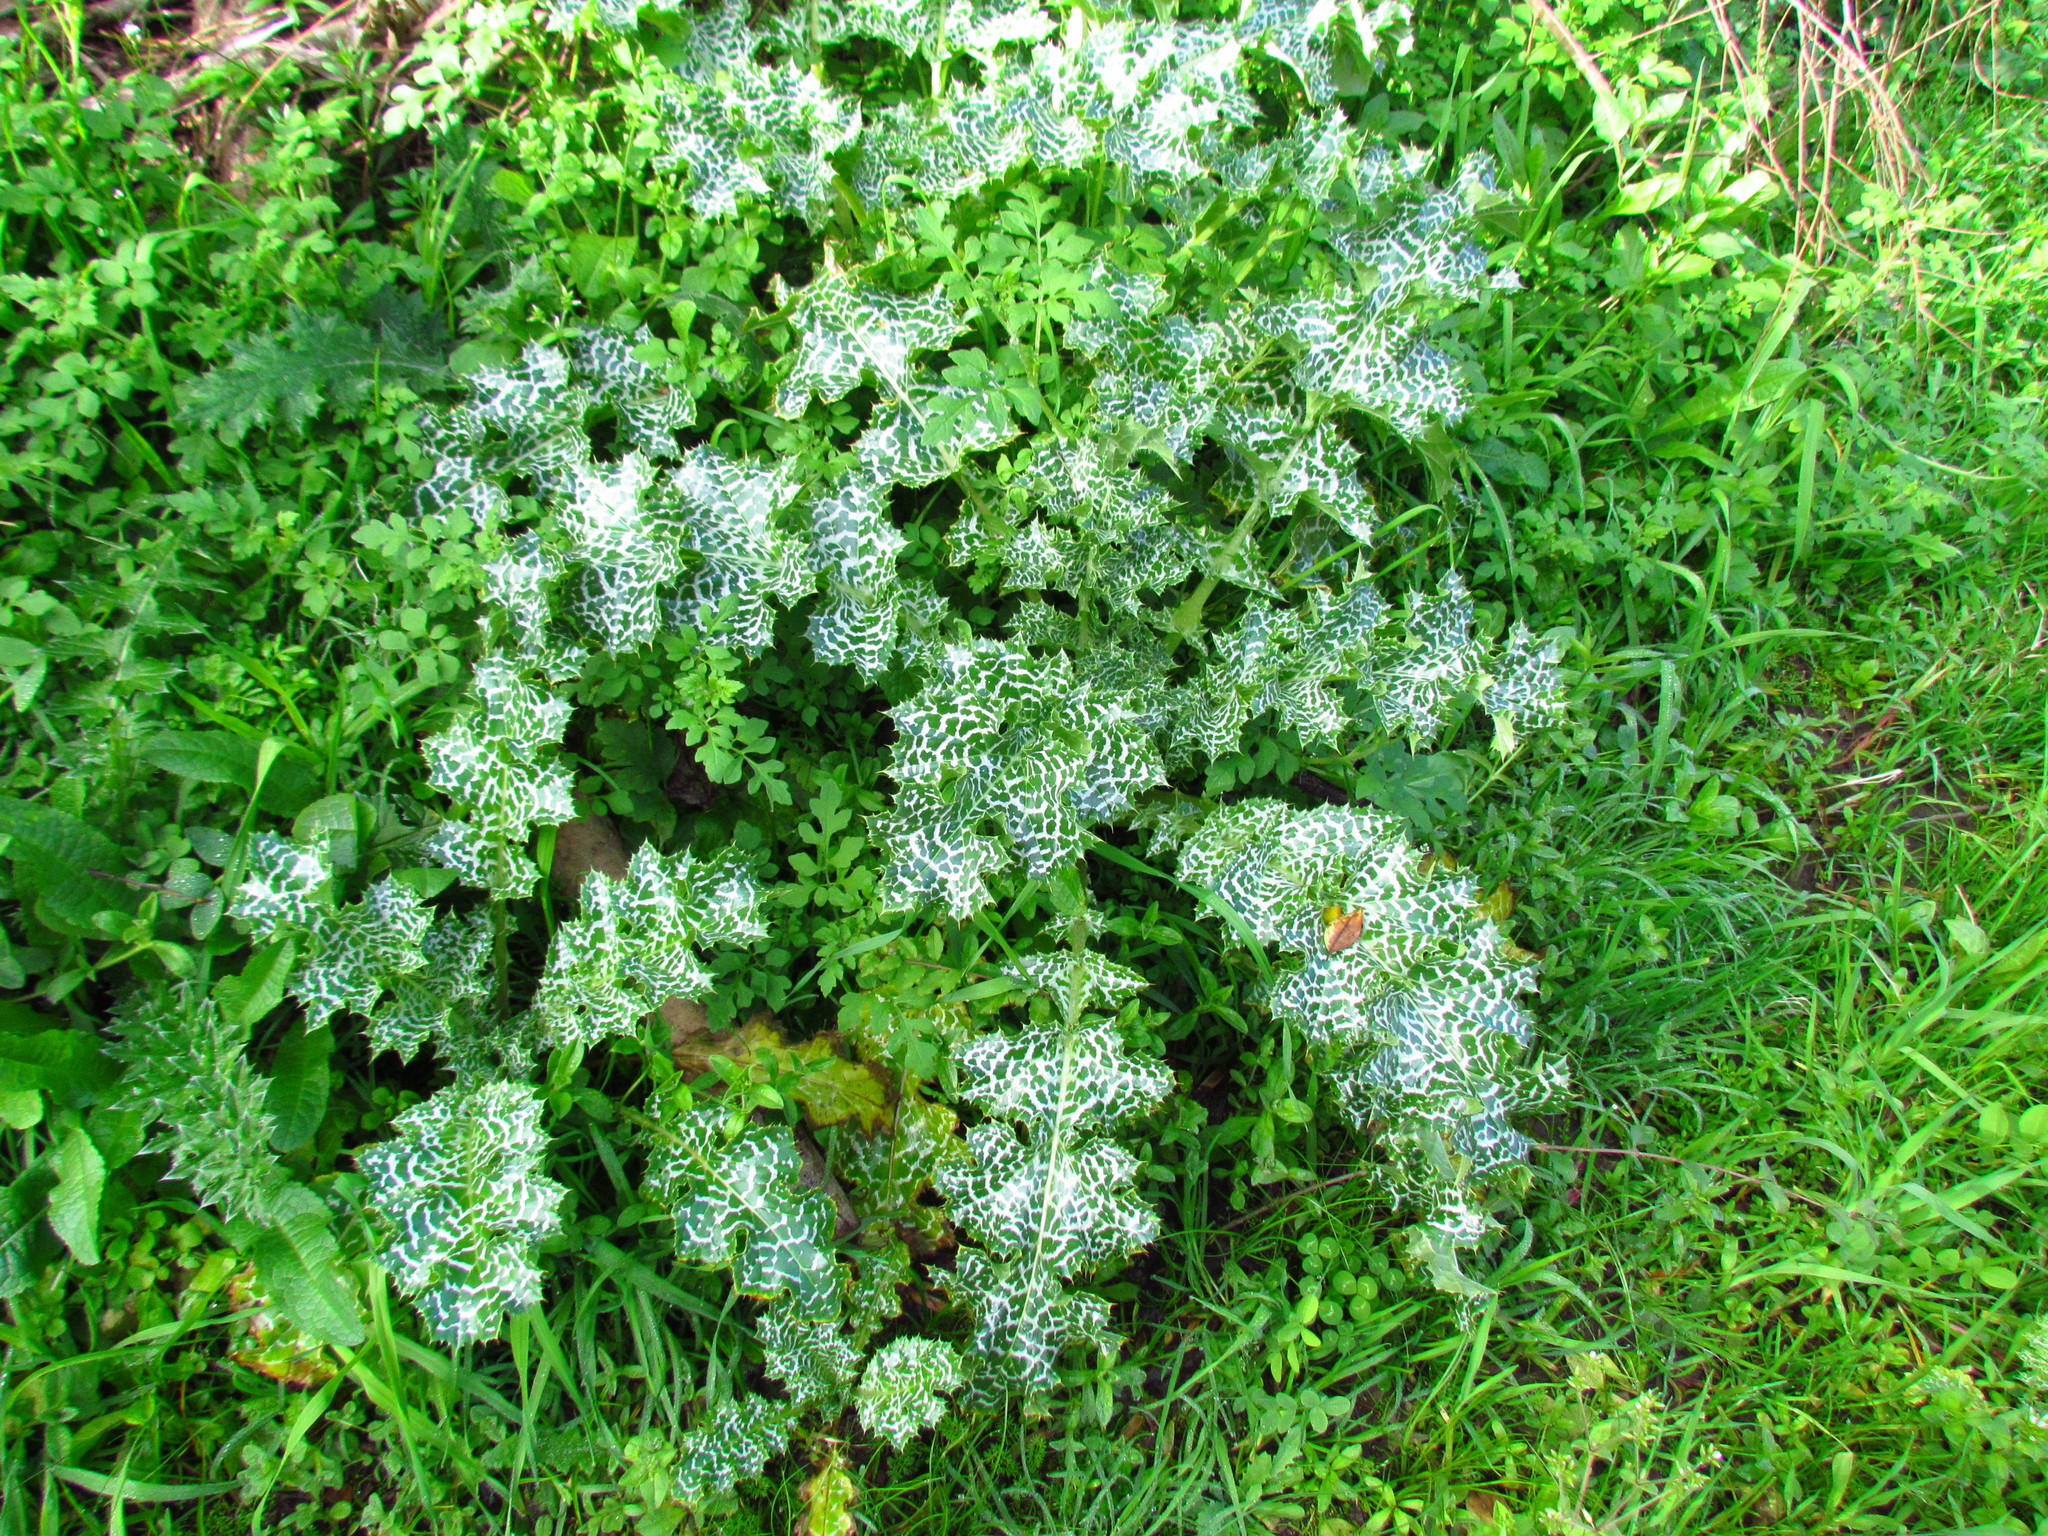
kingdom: Plantae
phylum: Tracheophyta
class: Magnoliopsida
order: Asterales
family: Asteraceae
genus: Silybum
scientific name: Silybum marianum
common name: Milk thistle
